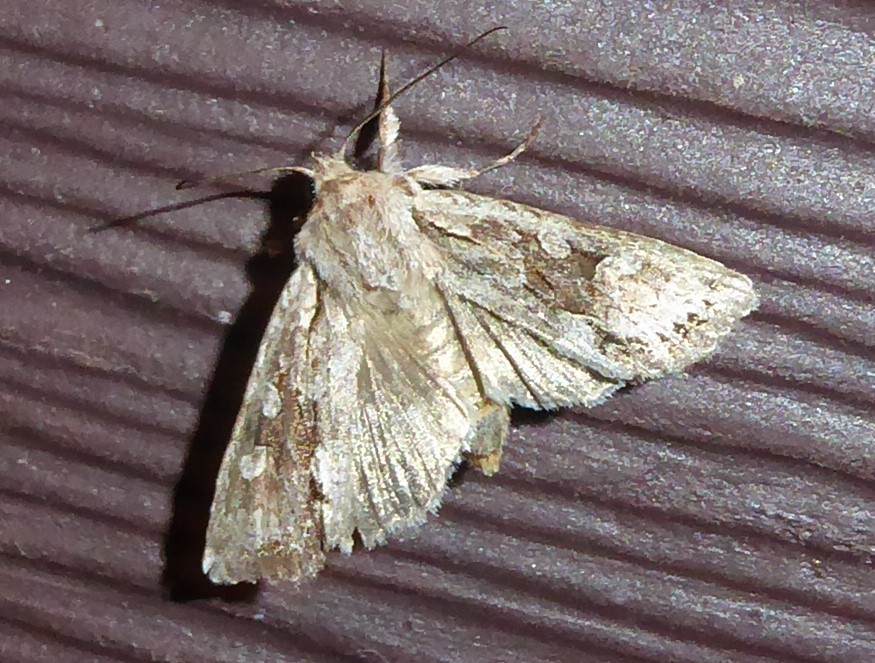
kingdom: Animalia
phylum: Arthropoda
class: Insecta
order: Lepidoptera
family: Noctuidae
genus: Ichneutica
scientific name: Ichneutica mutans
